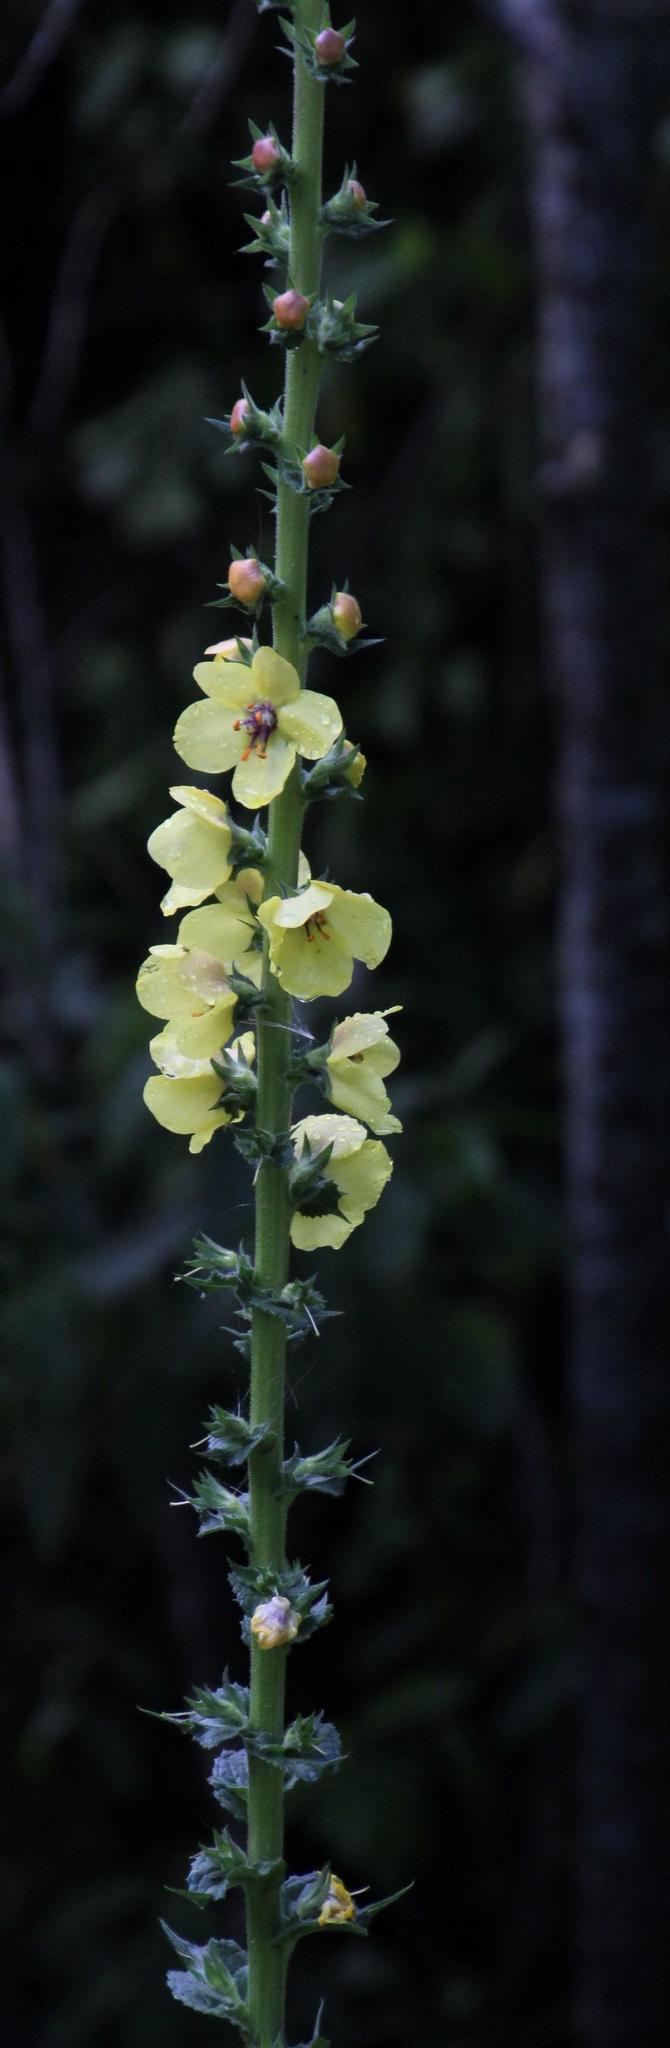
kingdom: Plantae
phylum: Tracheophyta
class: Magnoliopsida
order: Lamiales
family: Scrophulariaceae
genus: Verbascum
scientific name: Verbascum virgatum
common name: Twiggy mullein
